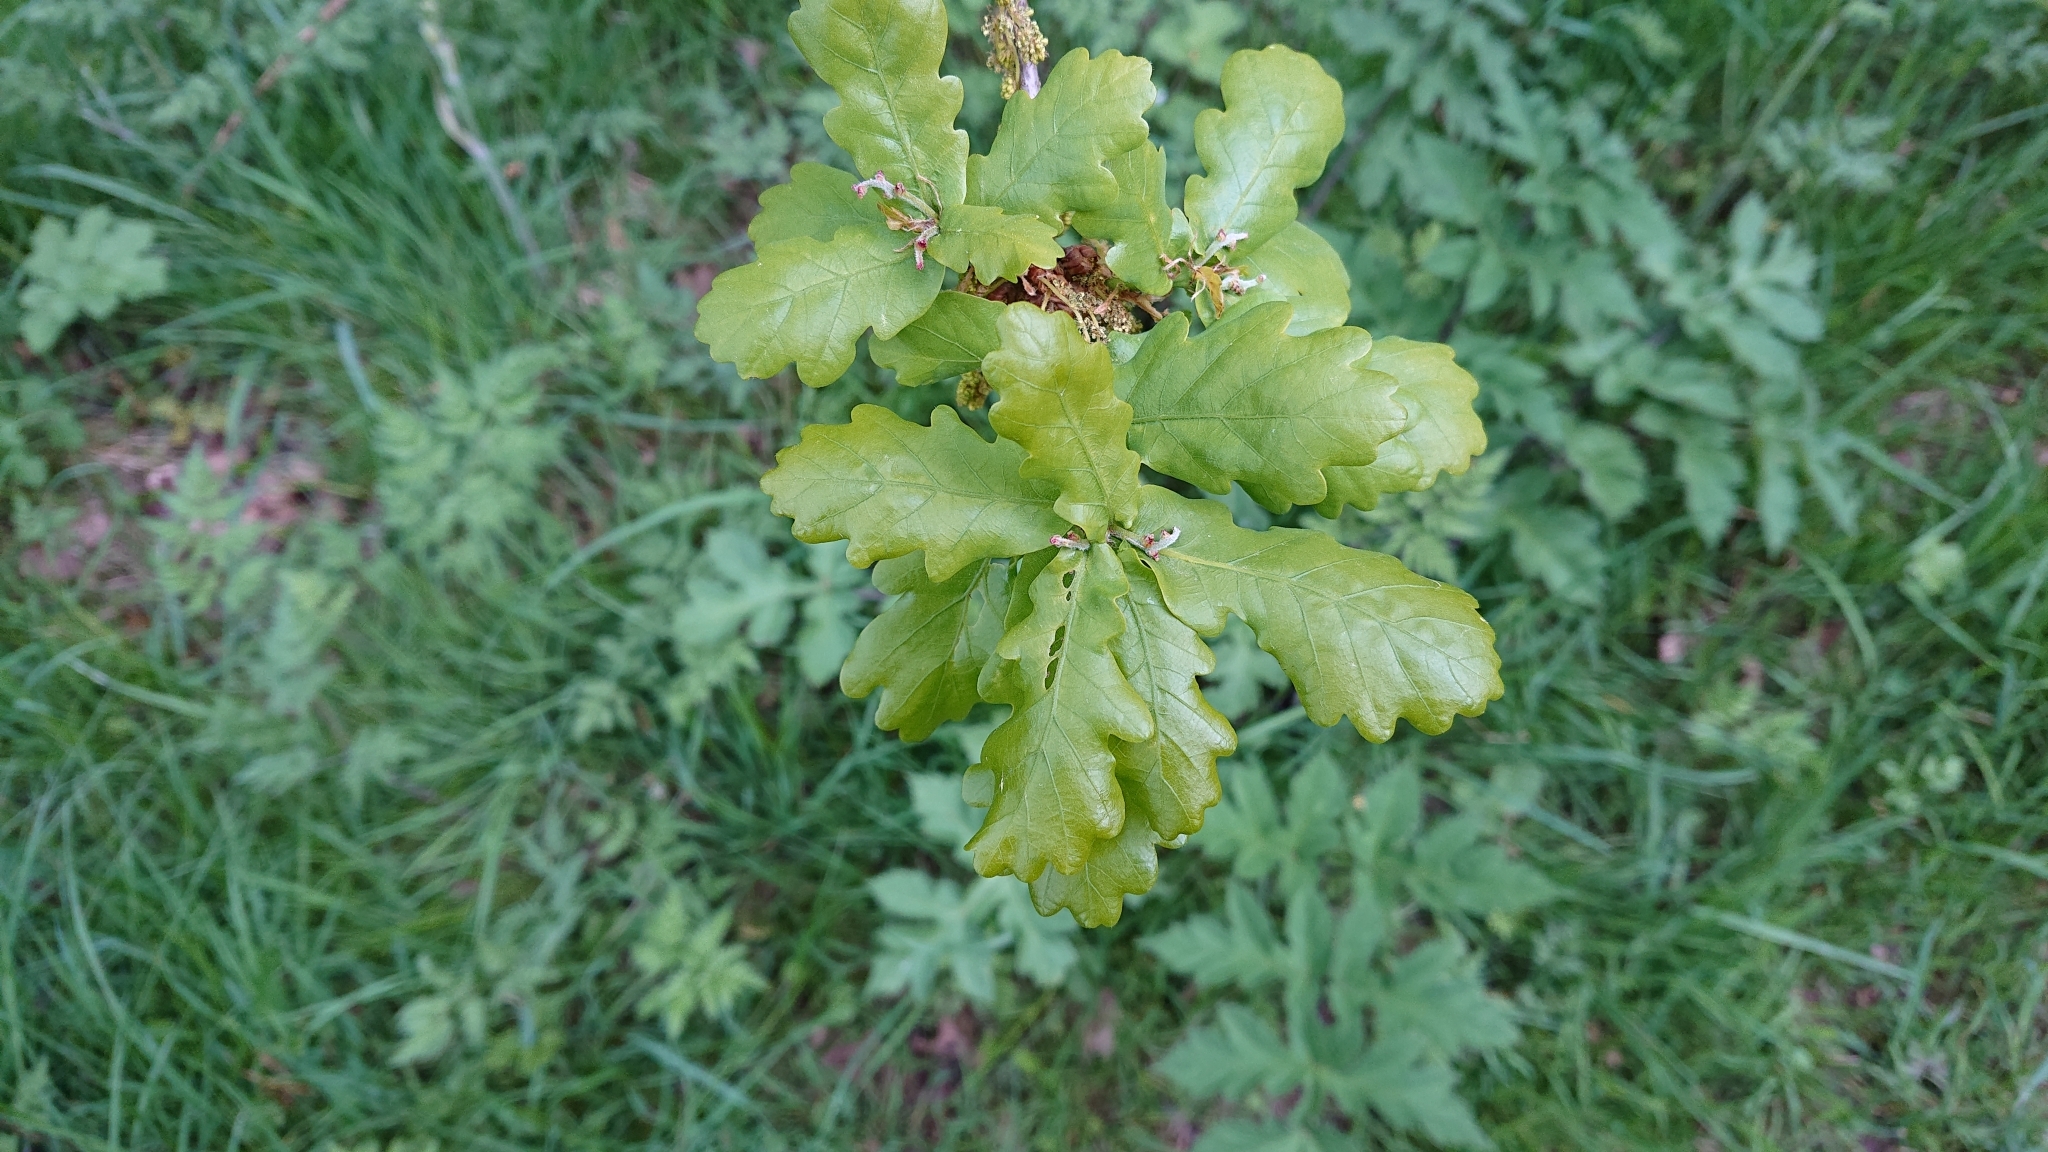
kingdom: Plantae
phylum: Tracheophyta
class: Magnoliopsida
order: Fagales
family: Fagaceae
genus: Quercus
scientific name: Quercus robur
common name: Pedunculate oak
